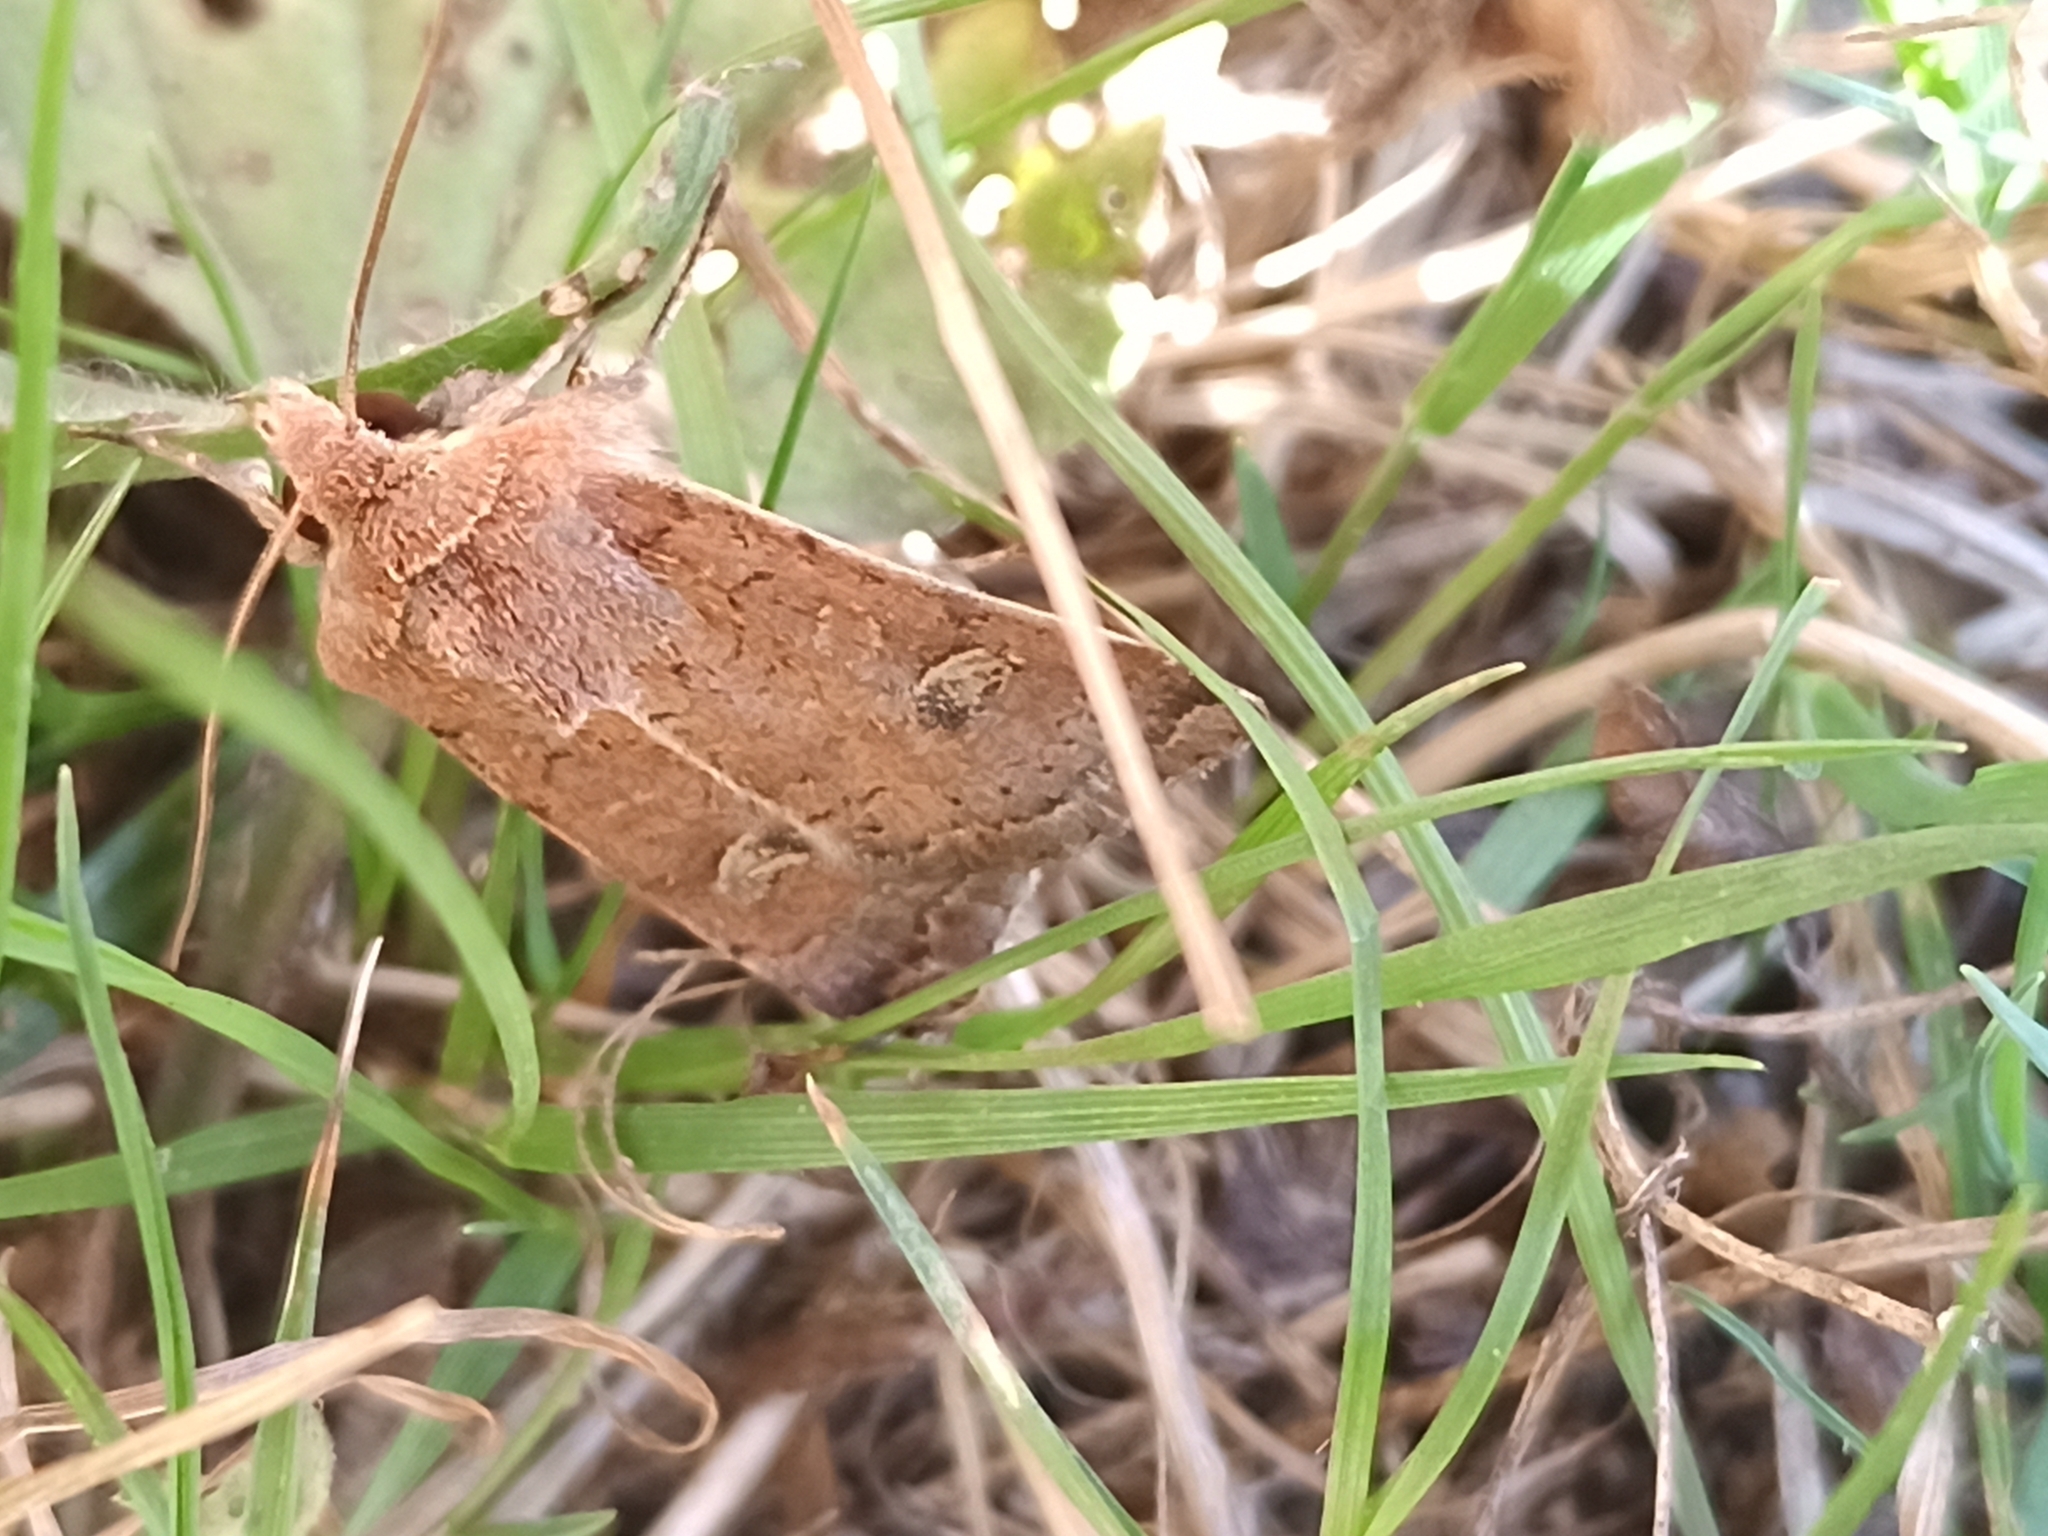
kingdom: Animalia
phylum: Arthropoda
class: Insecta
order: Lepidoptera
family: Noctuidae
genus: Xestia
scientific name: Xestia xanthographa
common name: Square-spot rustic
